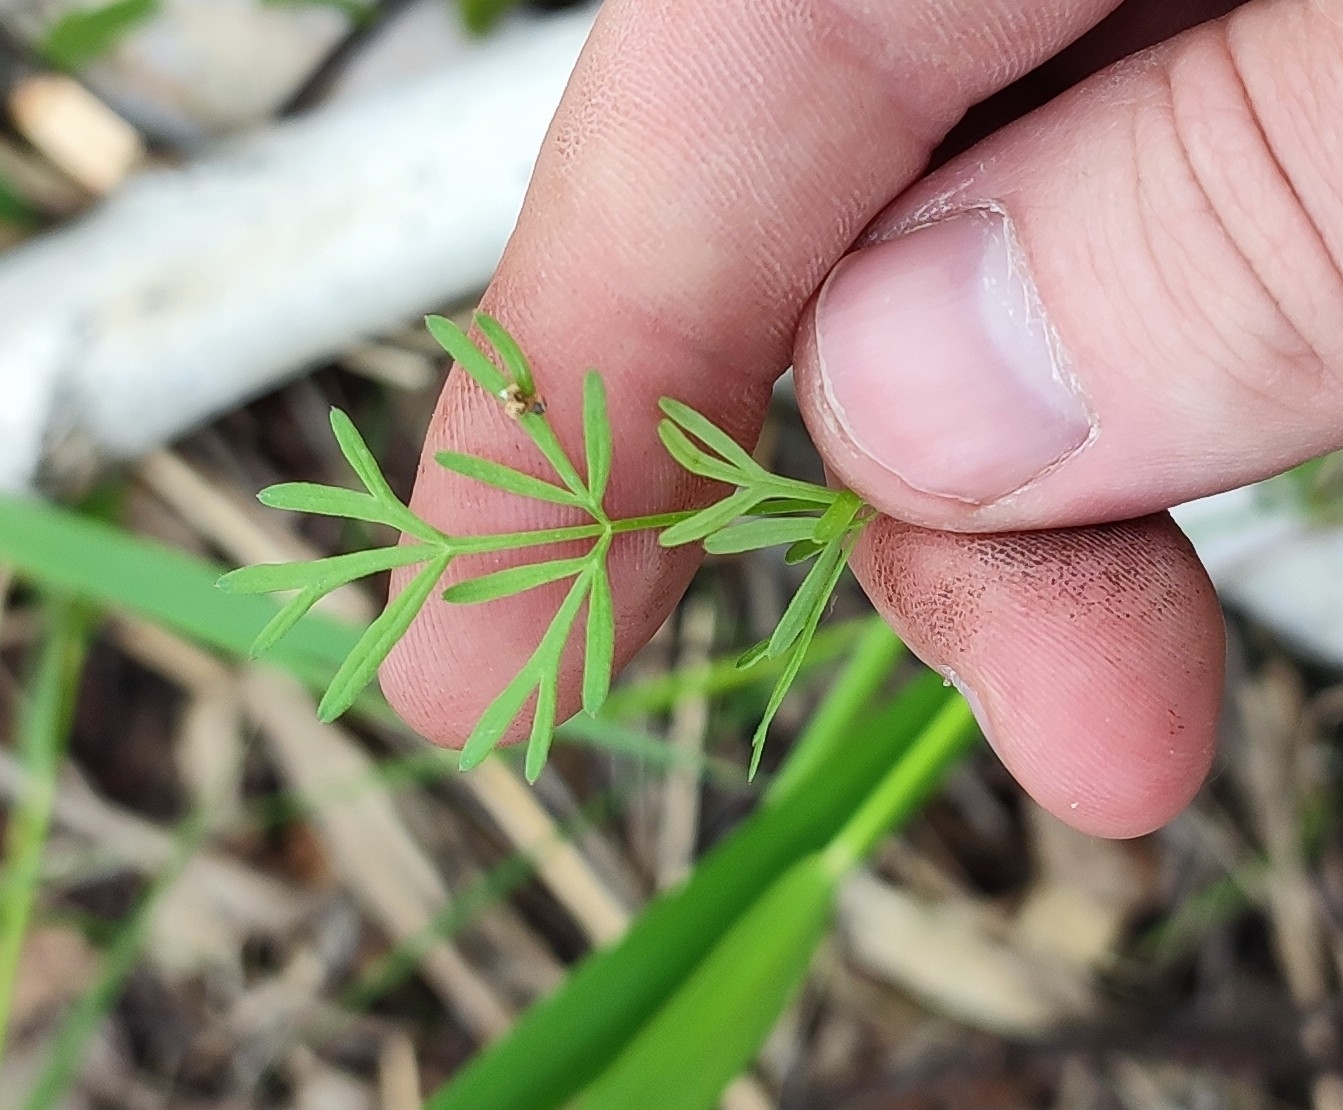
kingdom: Plantae
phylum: Tracheophyta
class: Magnoliopsida
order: Apiales
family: Apiaceae
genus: Kadenia
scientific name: Kadenia dubia
